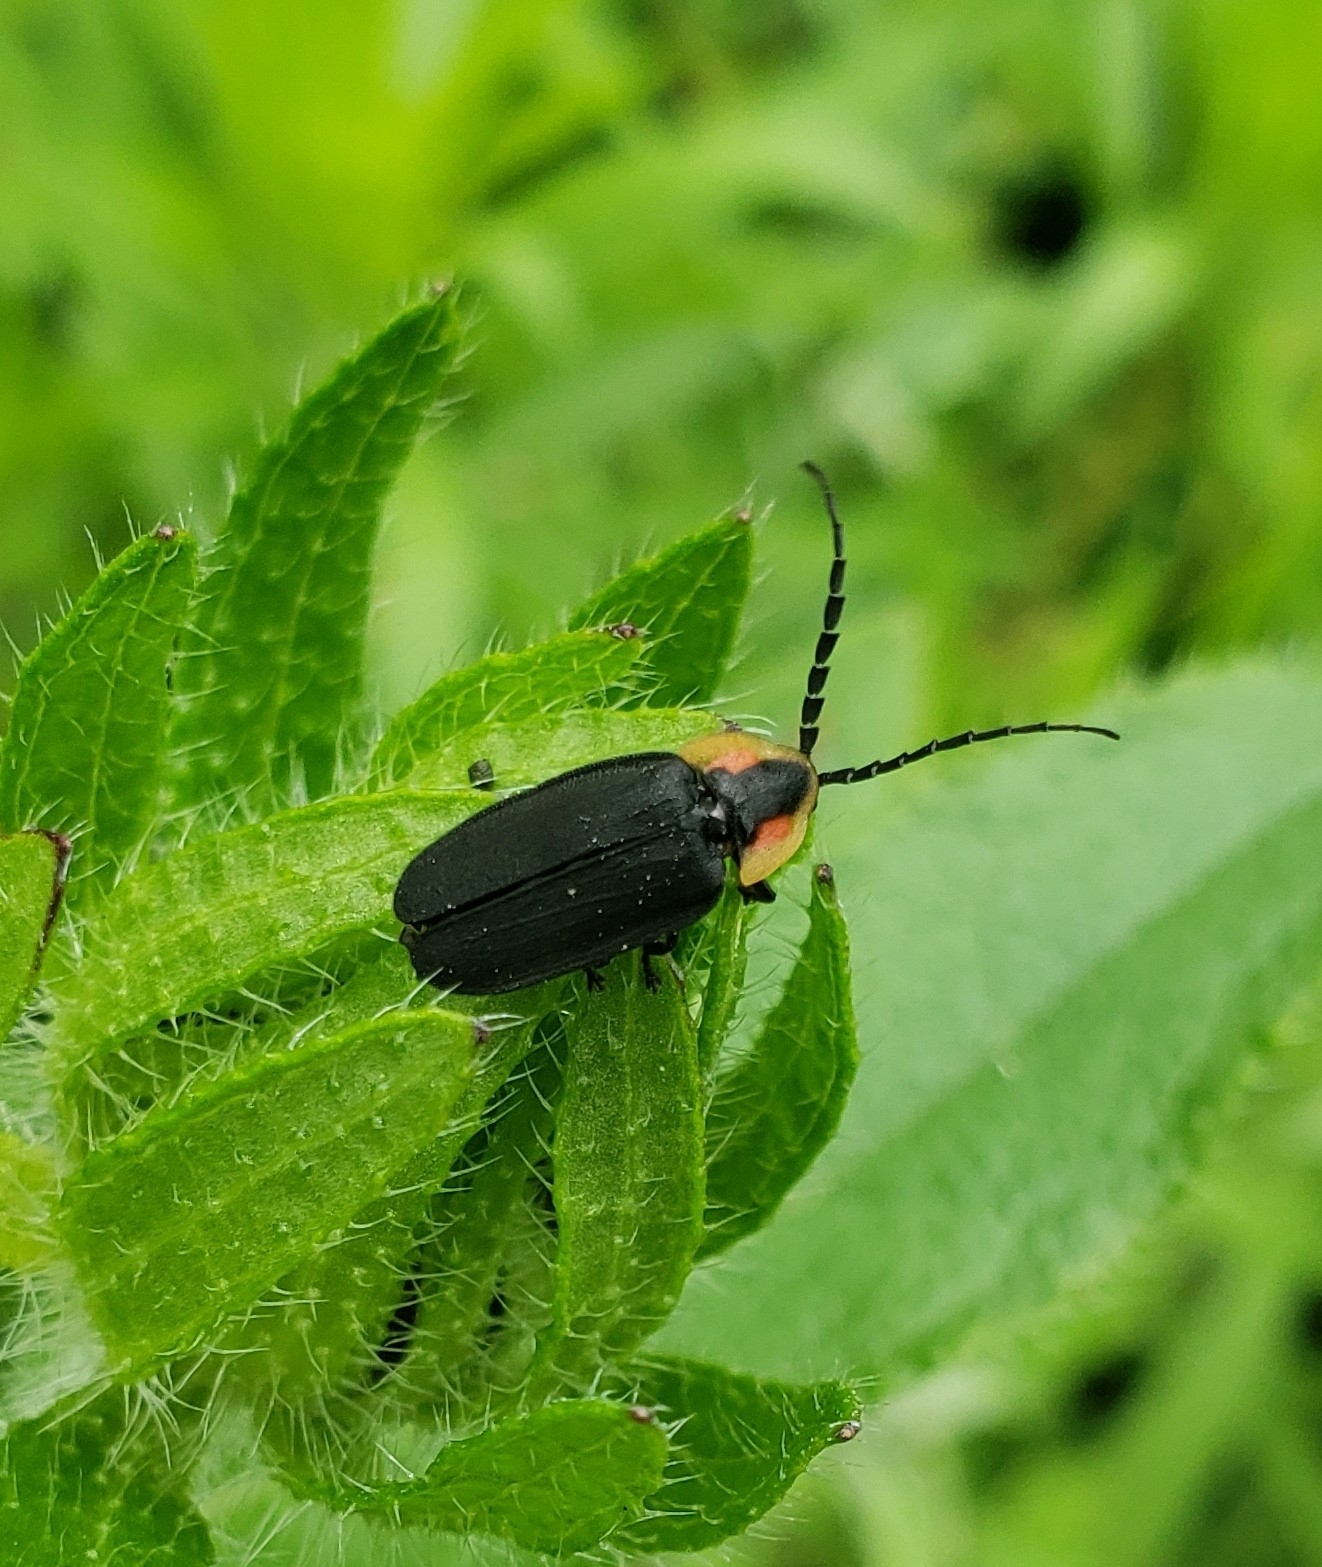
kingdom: Animalia
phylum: Arthropoda
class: Insecta
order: Coleoptera
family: Lampyridae
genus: Lucidota
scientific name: Lucidota atra
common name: Black firefly
